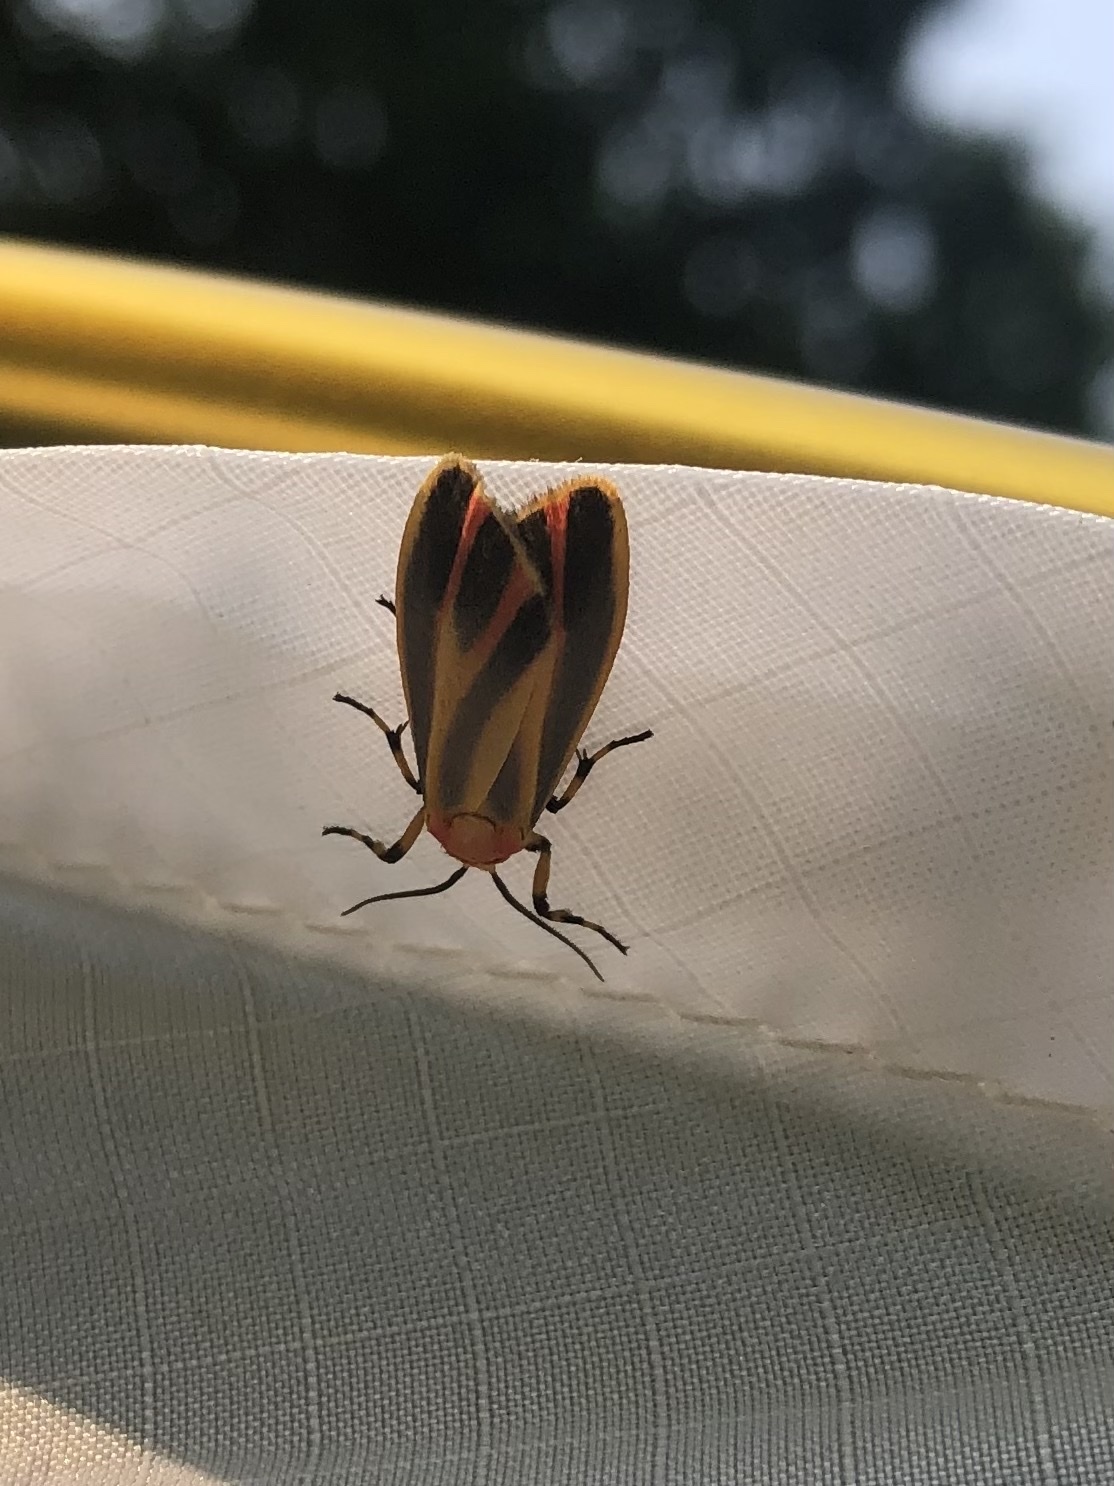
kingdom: Animalia
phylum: Arthropoda
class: Insecta
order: Lepidoptera
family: Erebidae
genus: Hypoprepia
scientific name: Hypoprepia fucosa
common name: Painted lichen moth
